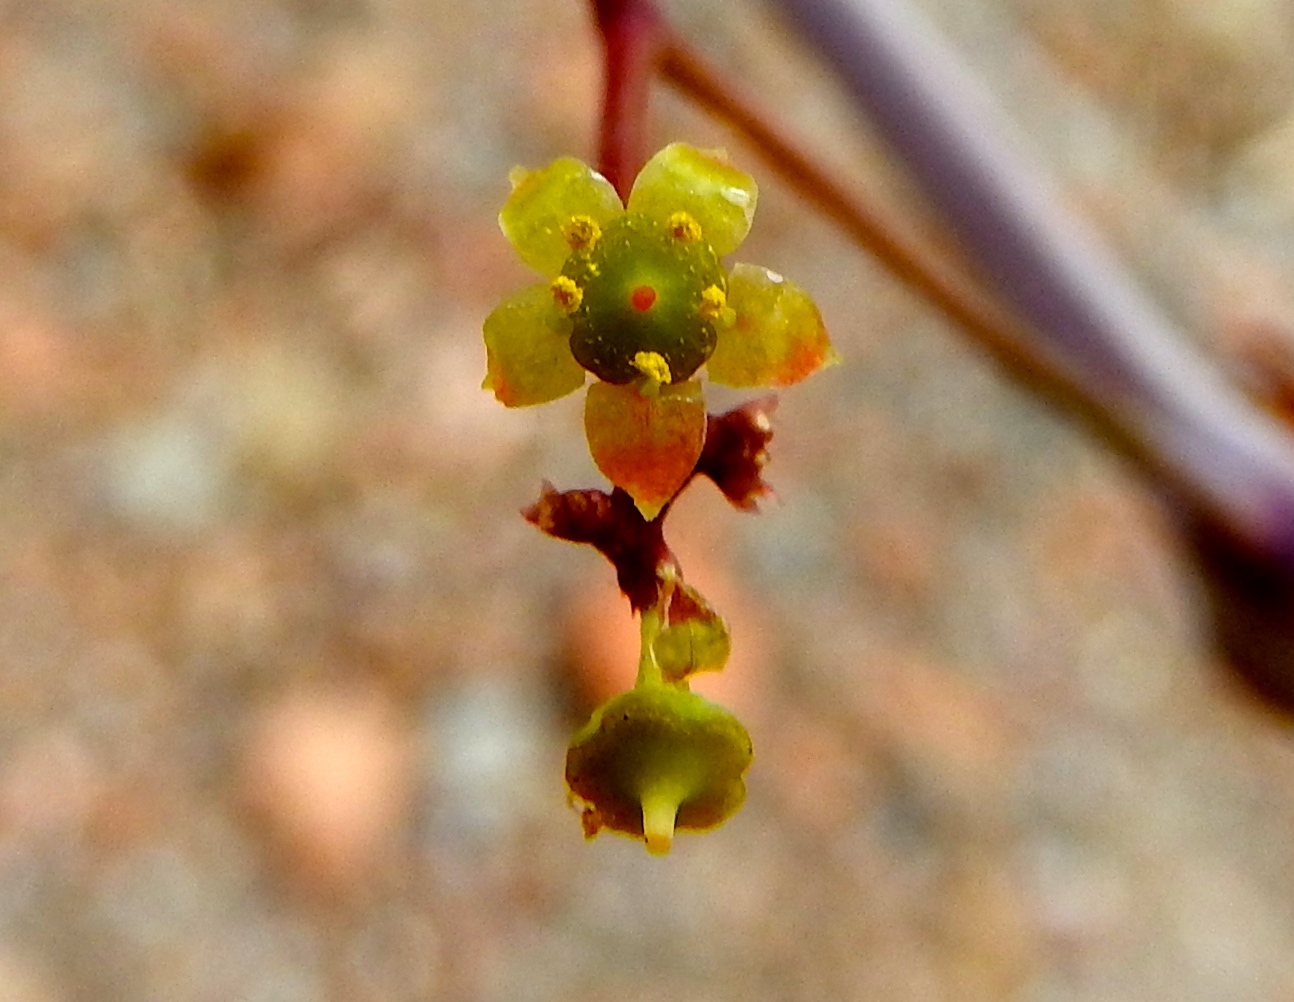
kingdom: Plantae
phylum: Tracheophyta
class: Magnoliopsida
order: Vitales
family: Vitaceae
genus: Parthenocissus
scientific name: Parthenocissus quinquefolia
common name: Virginia-creeper
